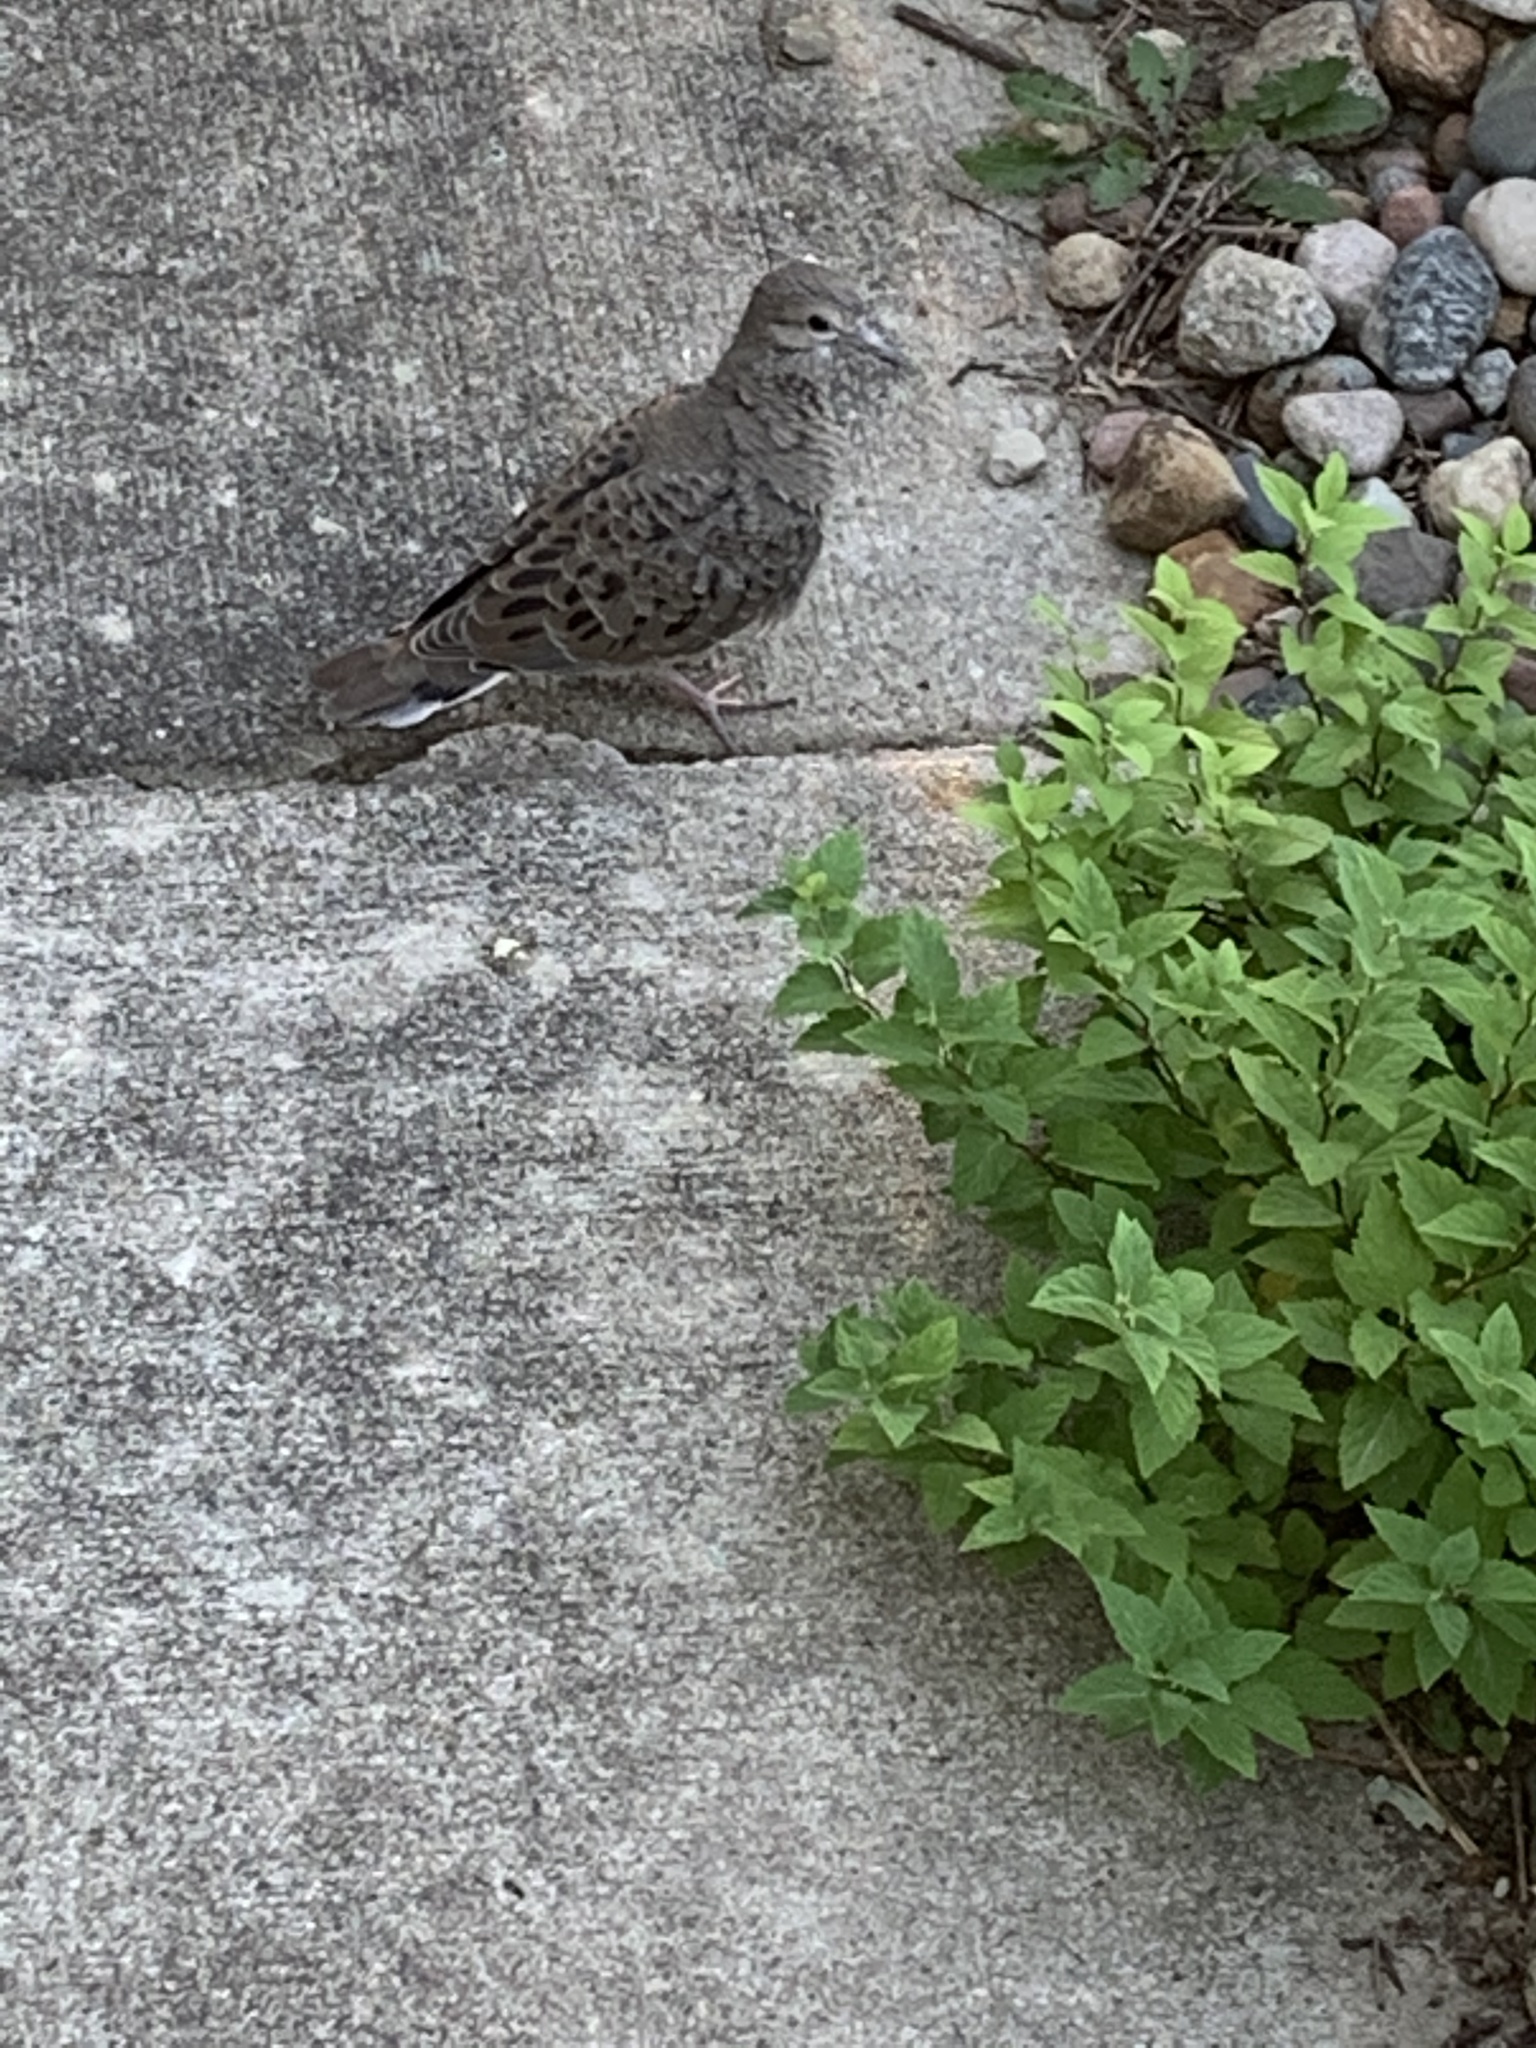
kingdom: Animalia
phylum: Chordata
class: Aves
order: Columbiformes
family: Columbidae
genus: Zenaida
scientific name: Zenaida macroura
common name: Mourning dove
